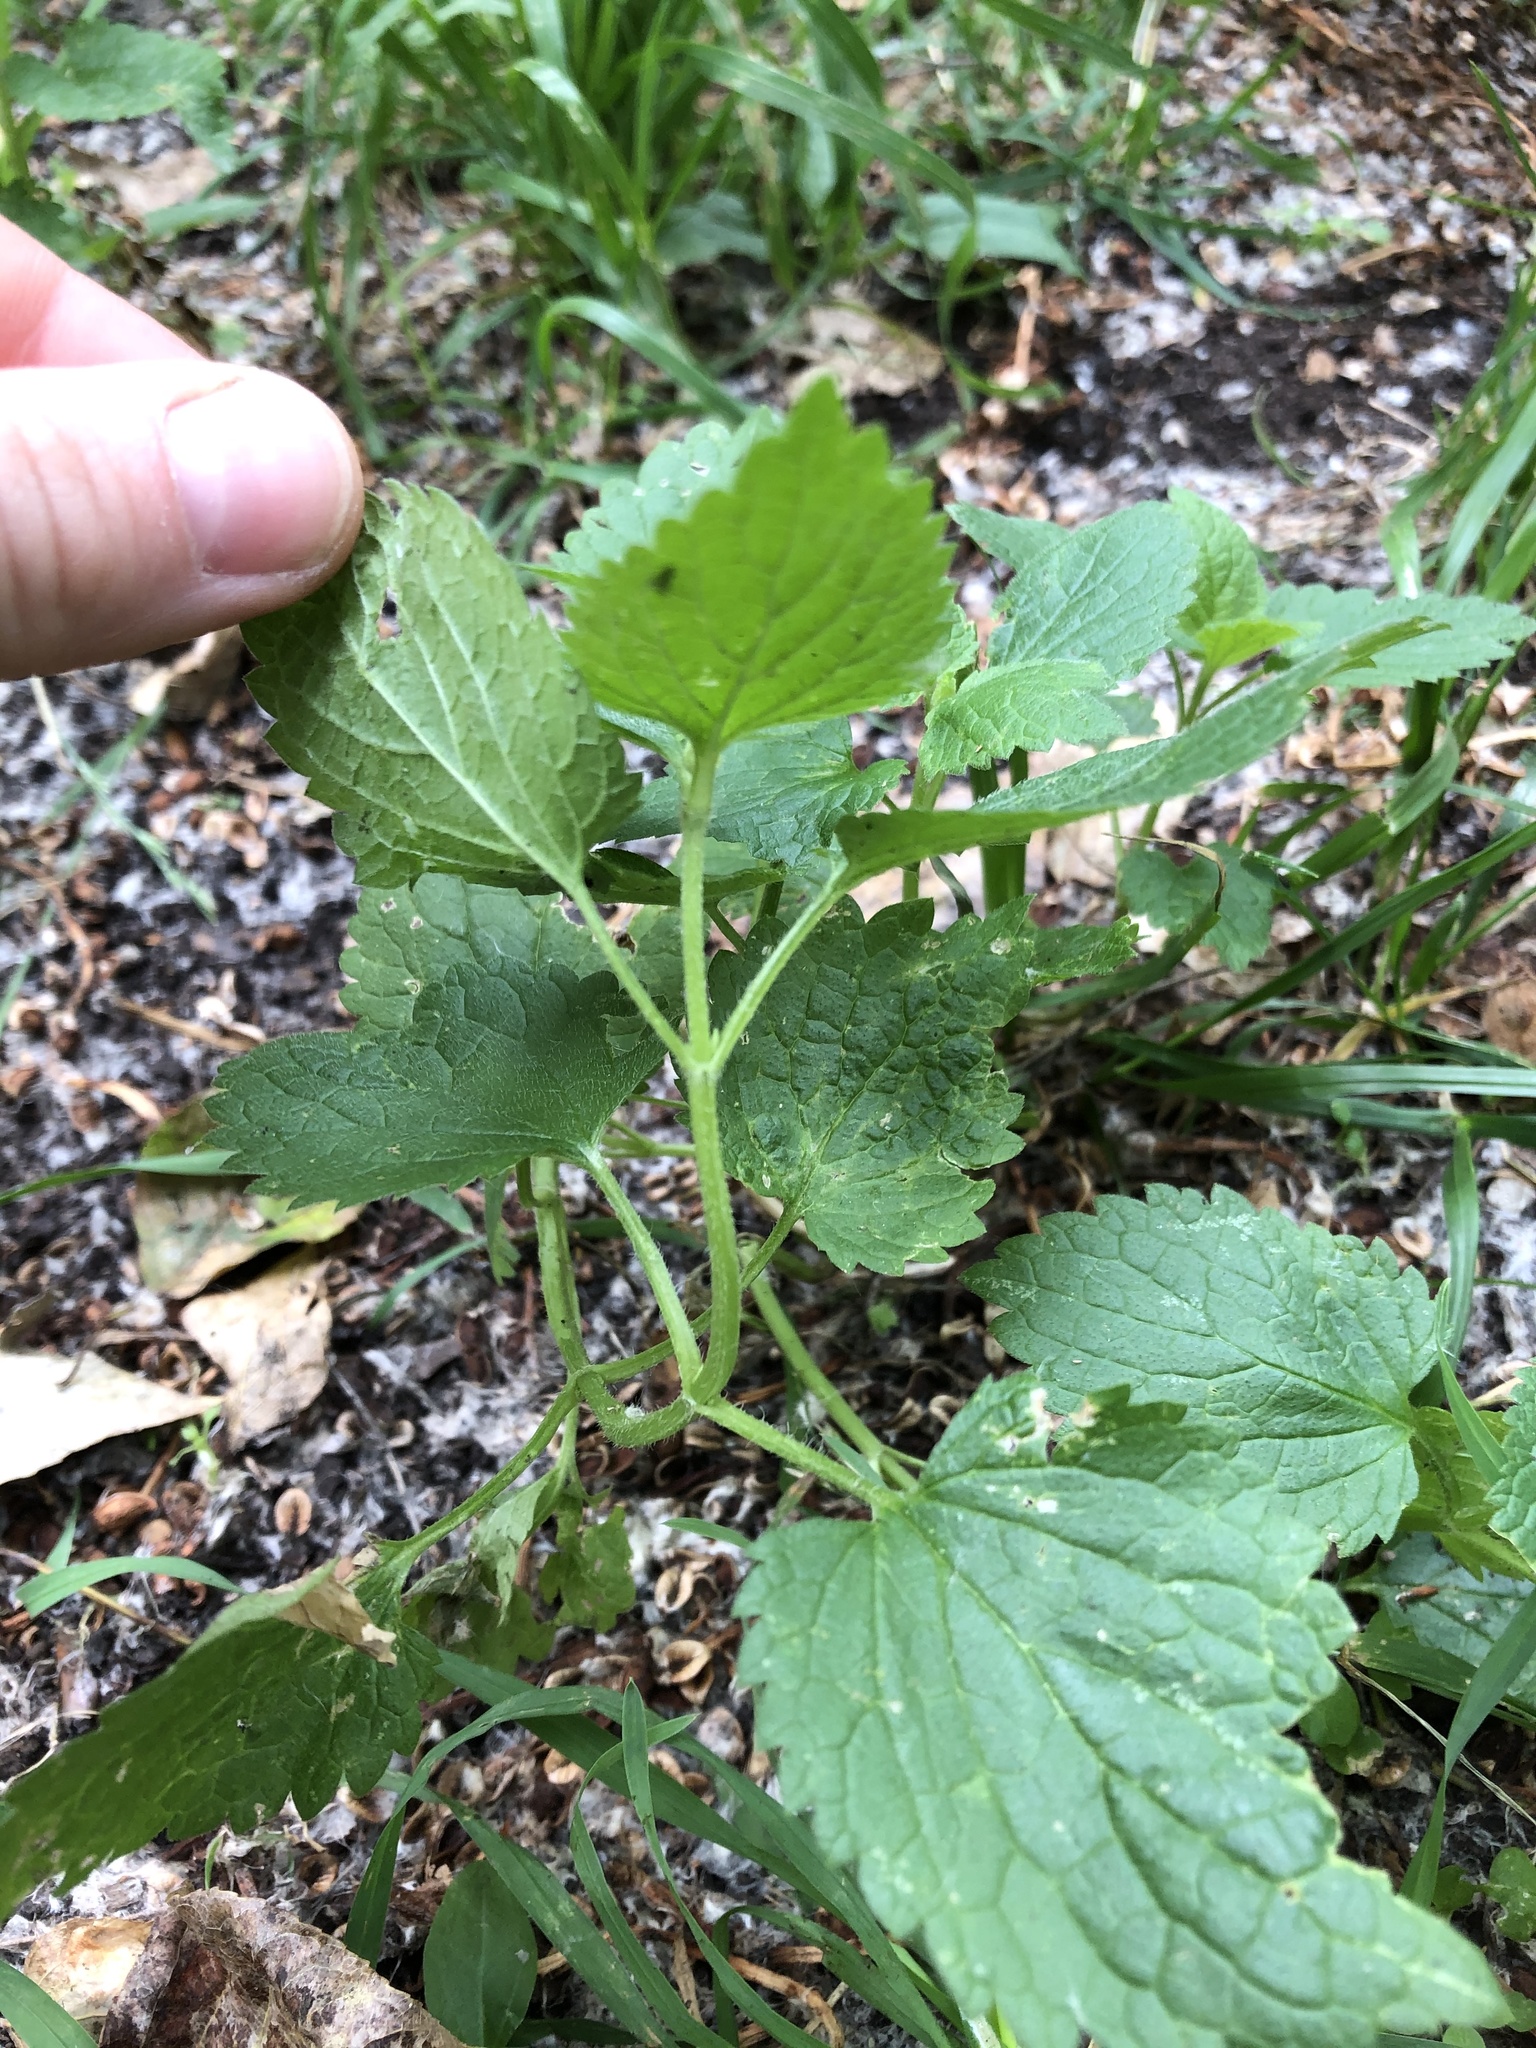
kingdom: Plantae
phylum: Tracheophyta
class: Magnoliopsida
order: Lamiales
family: Lamiaceae
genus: Lamium
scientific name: Lamium album
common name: White dead-nettle
